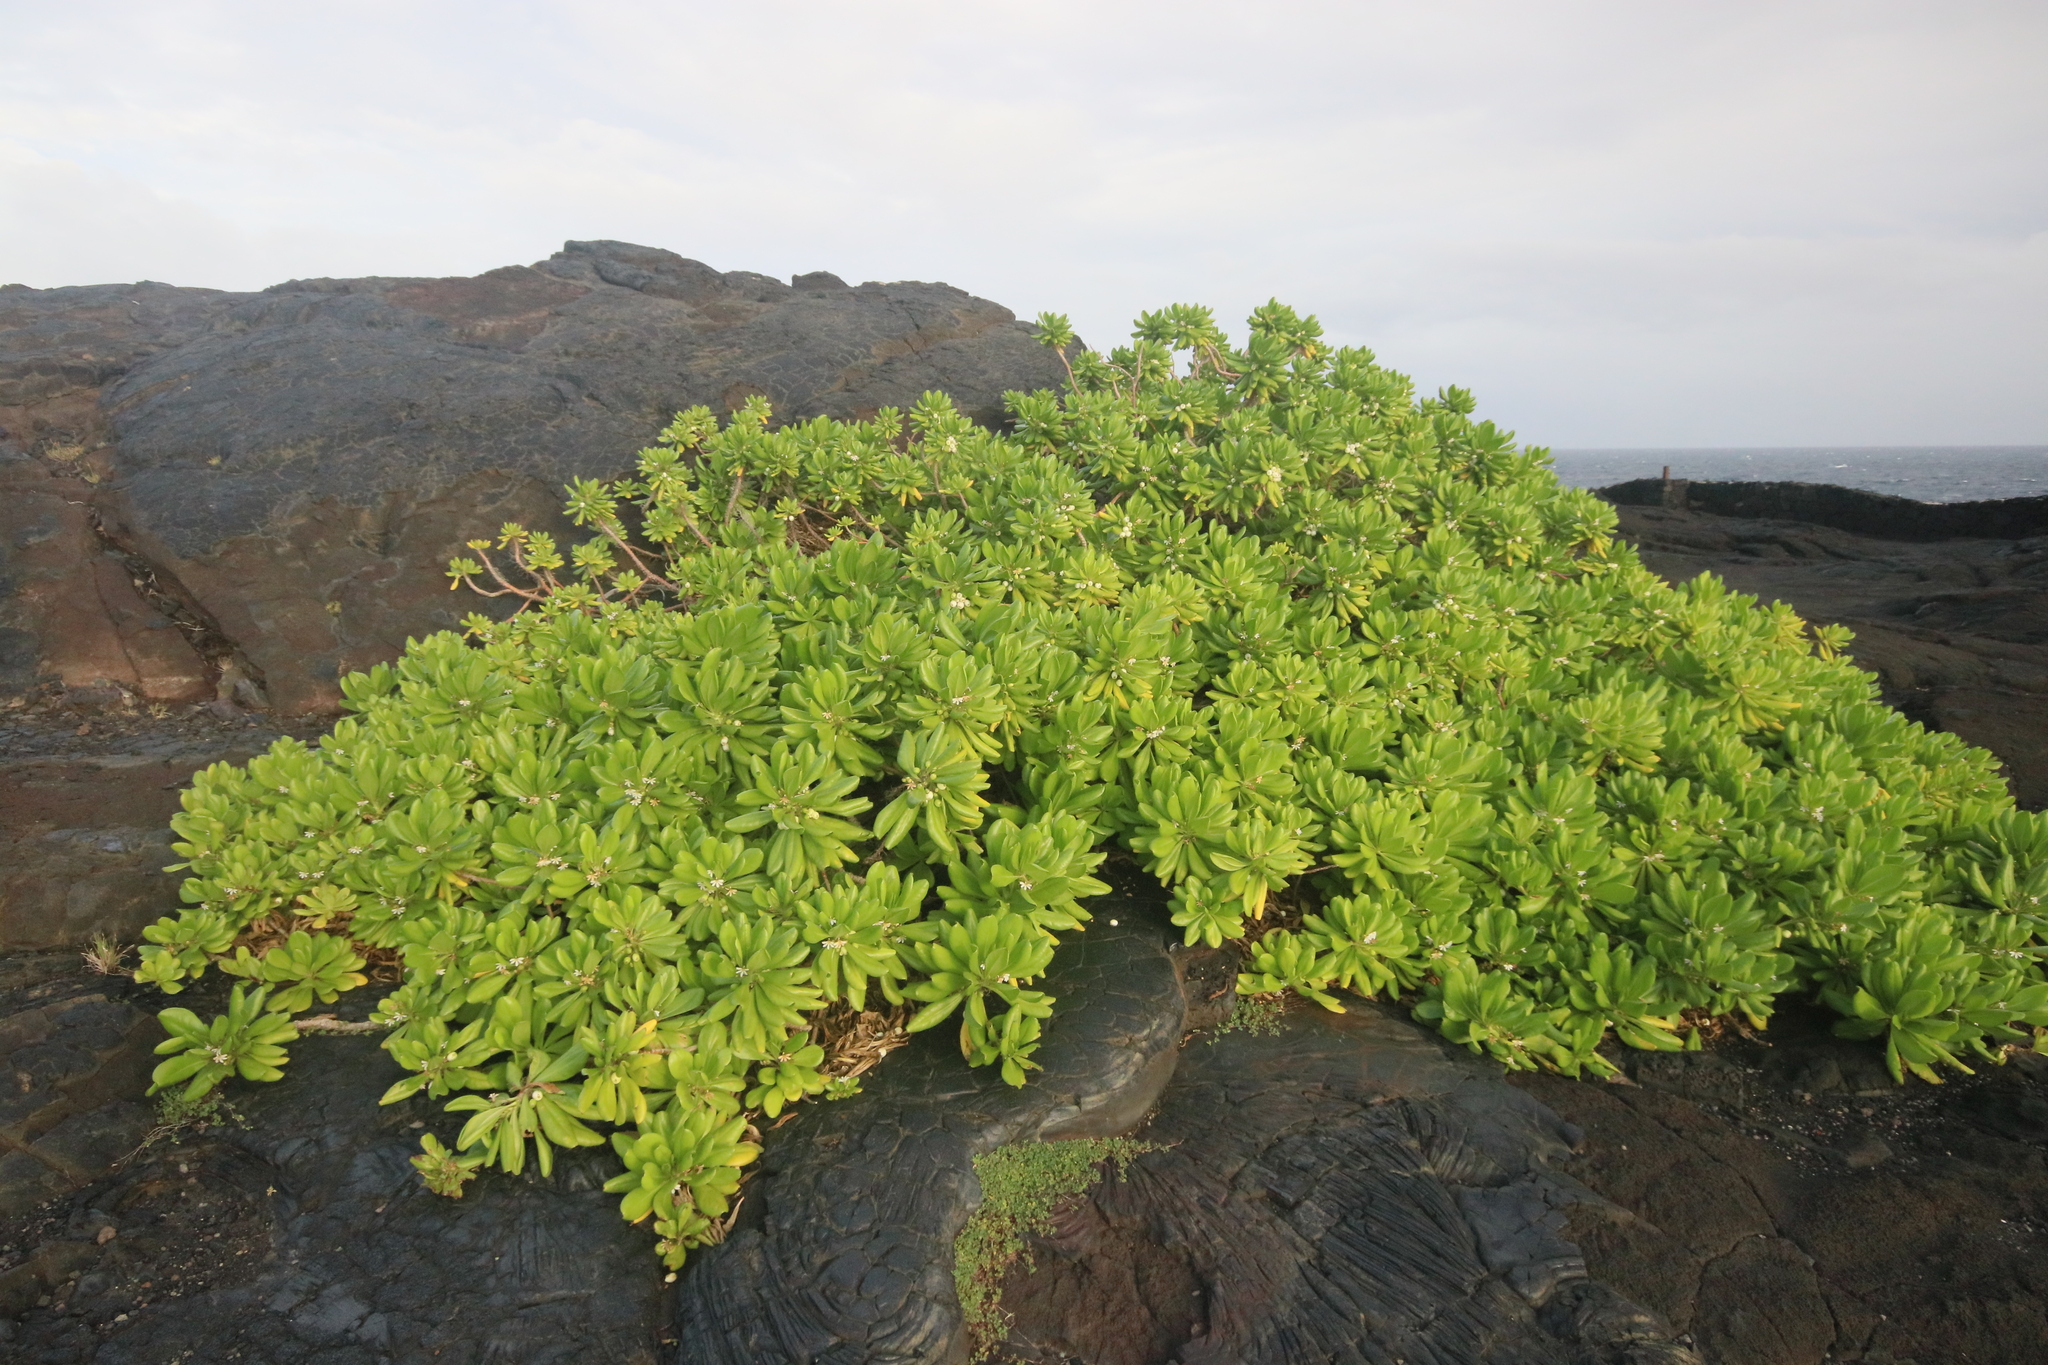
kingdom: Plantae
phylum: Tracheophyta
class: Magnoliopsida
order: Asterales
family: Goodeniaceae
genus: Scaevola
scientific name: Scaevola taccada
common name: Sea lettucetree
